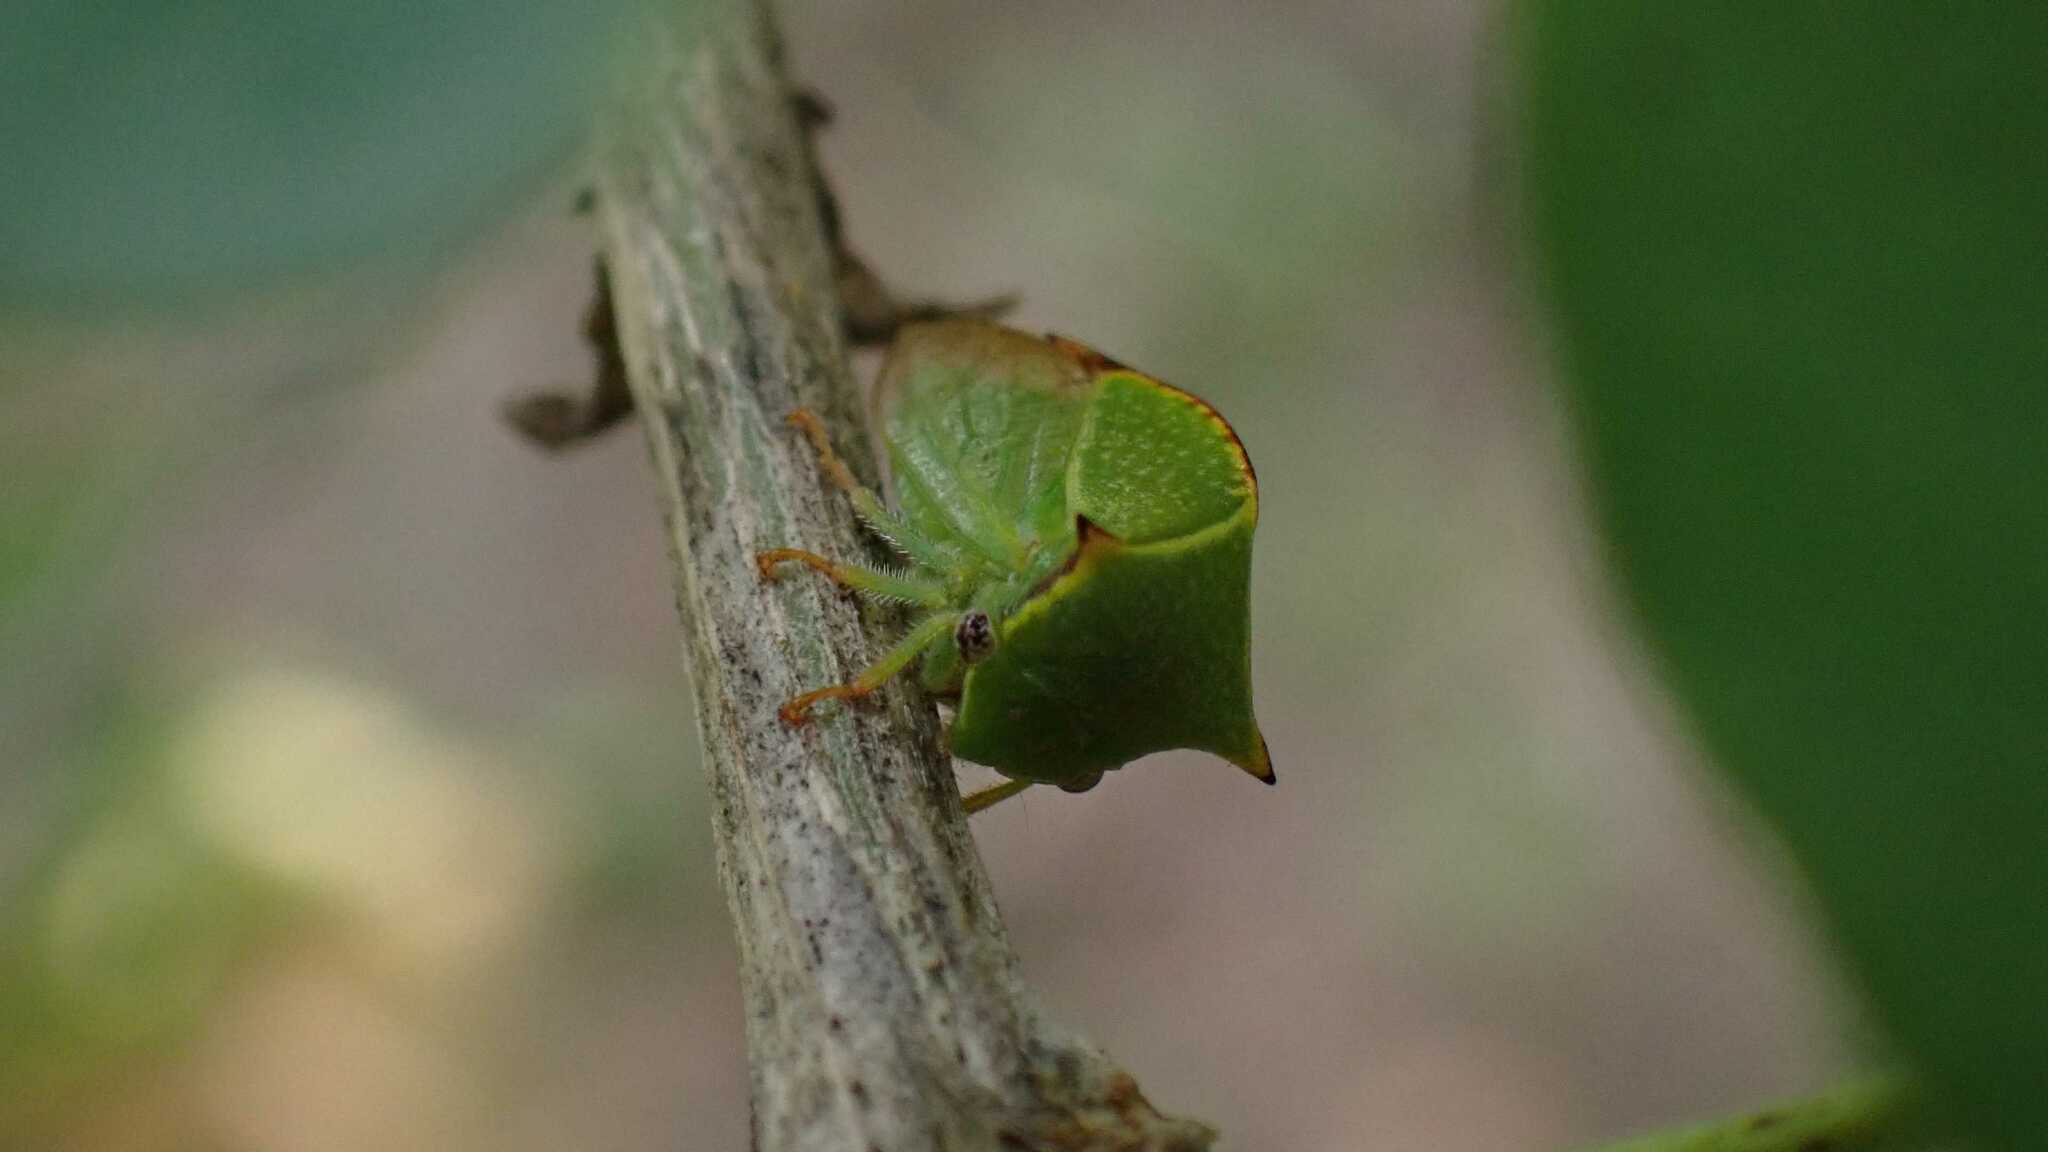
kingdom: Animalia
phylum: Arthropoda
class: Insecta
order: Hemiptera
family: Membracidae
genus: Stictocephala
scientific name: Stictocephala bisonia
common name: American buffalo treehopper
